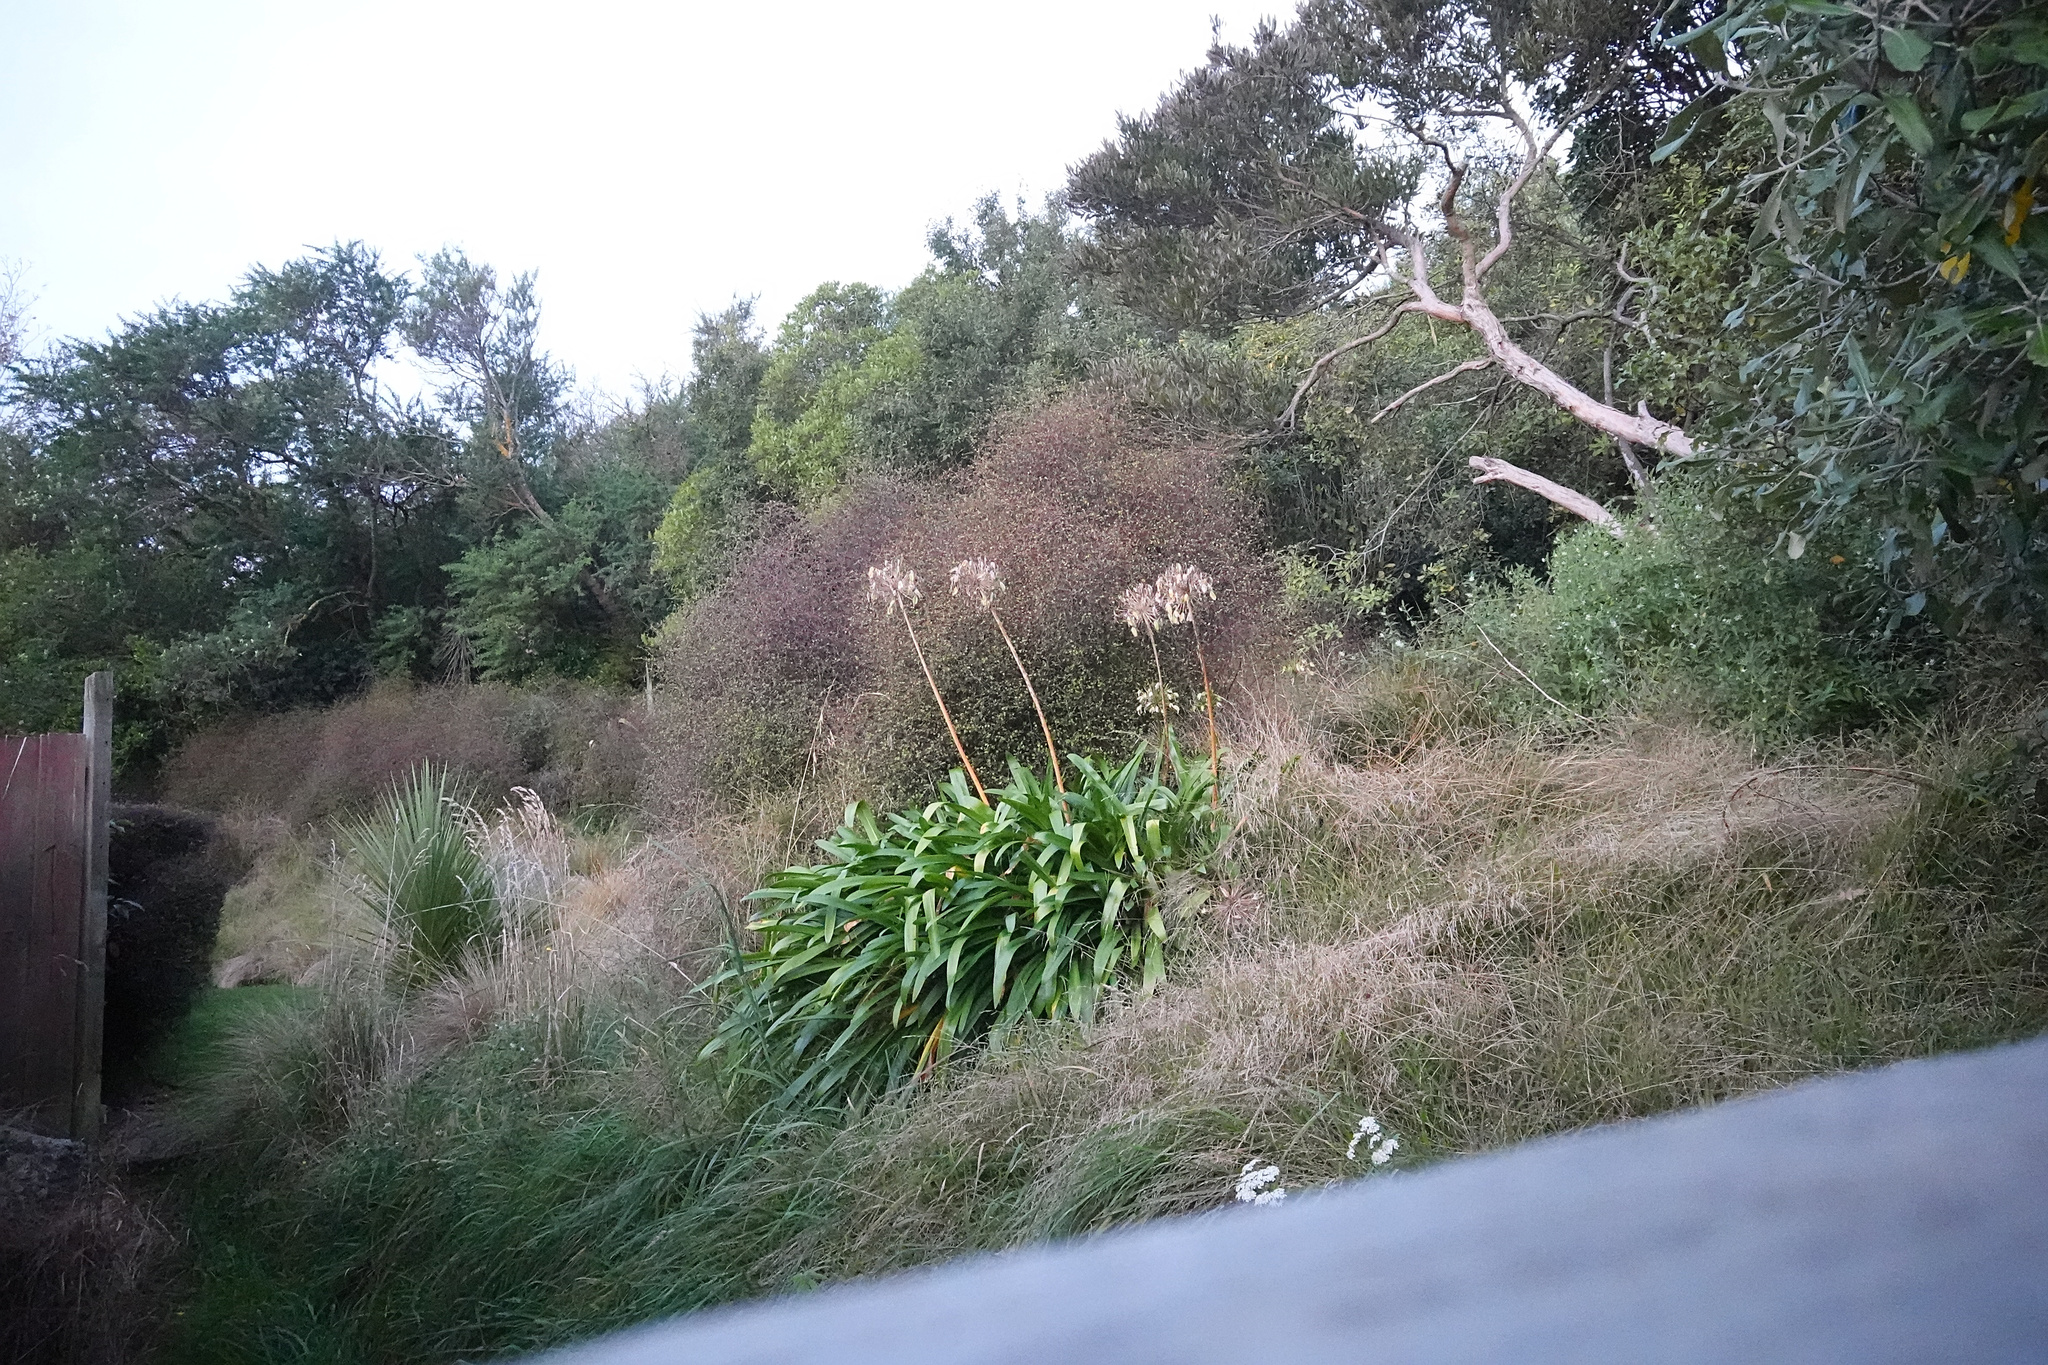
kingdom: Plantae
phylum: Tracheophyta
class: Liliopsida
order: Asparagales
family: Amaryllidaceae
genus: Agapanthus
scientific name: Agapanthus praecox
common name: African-lily
